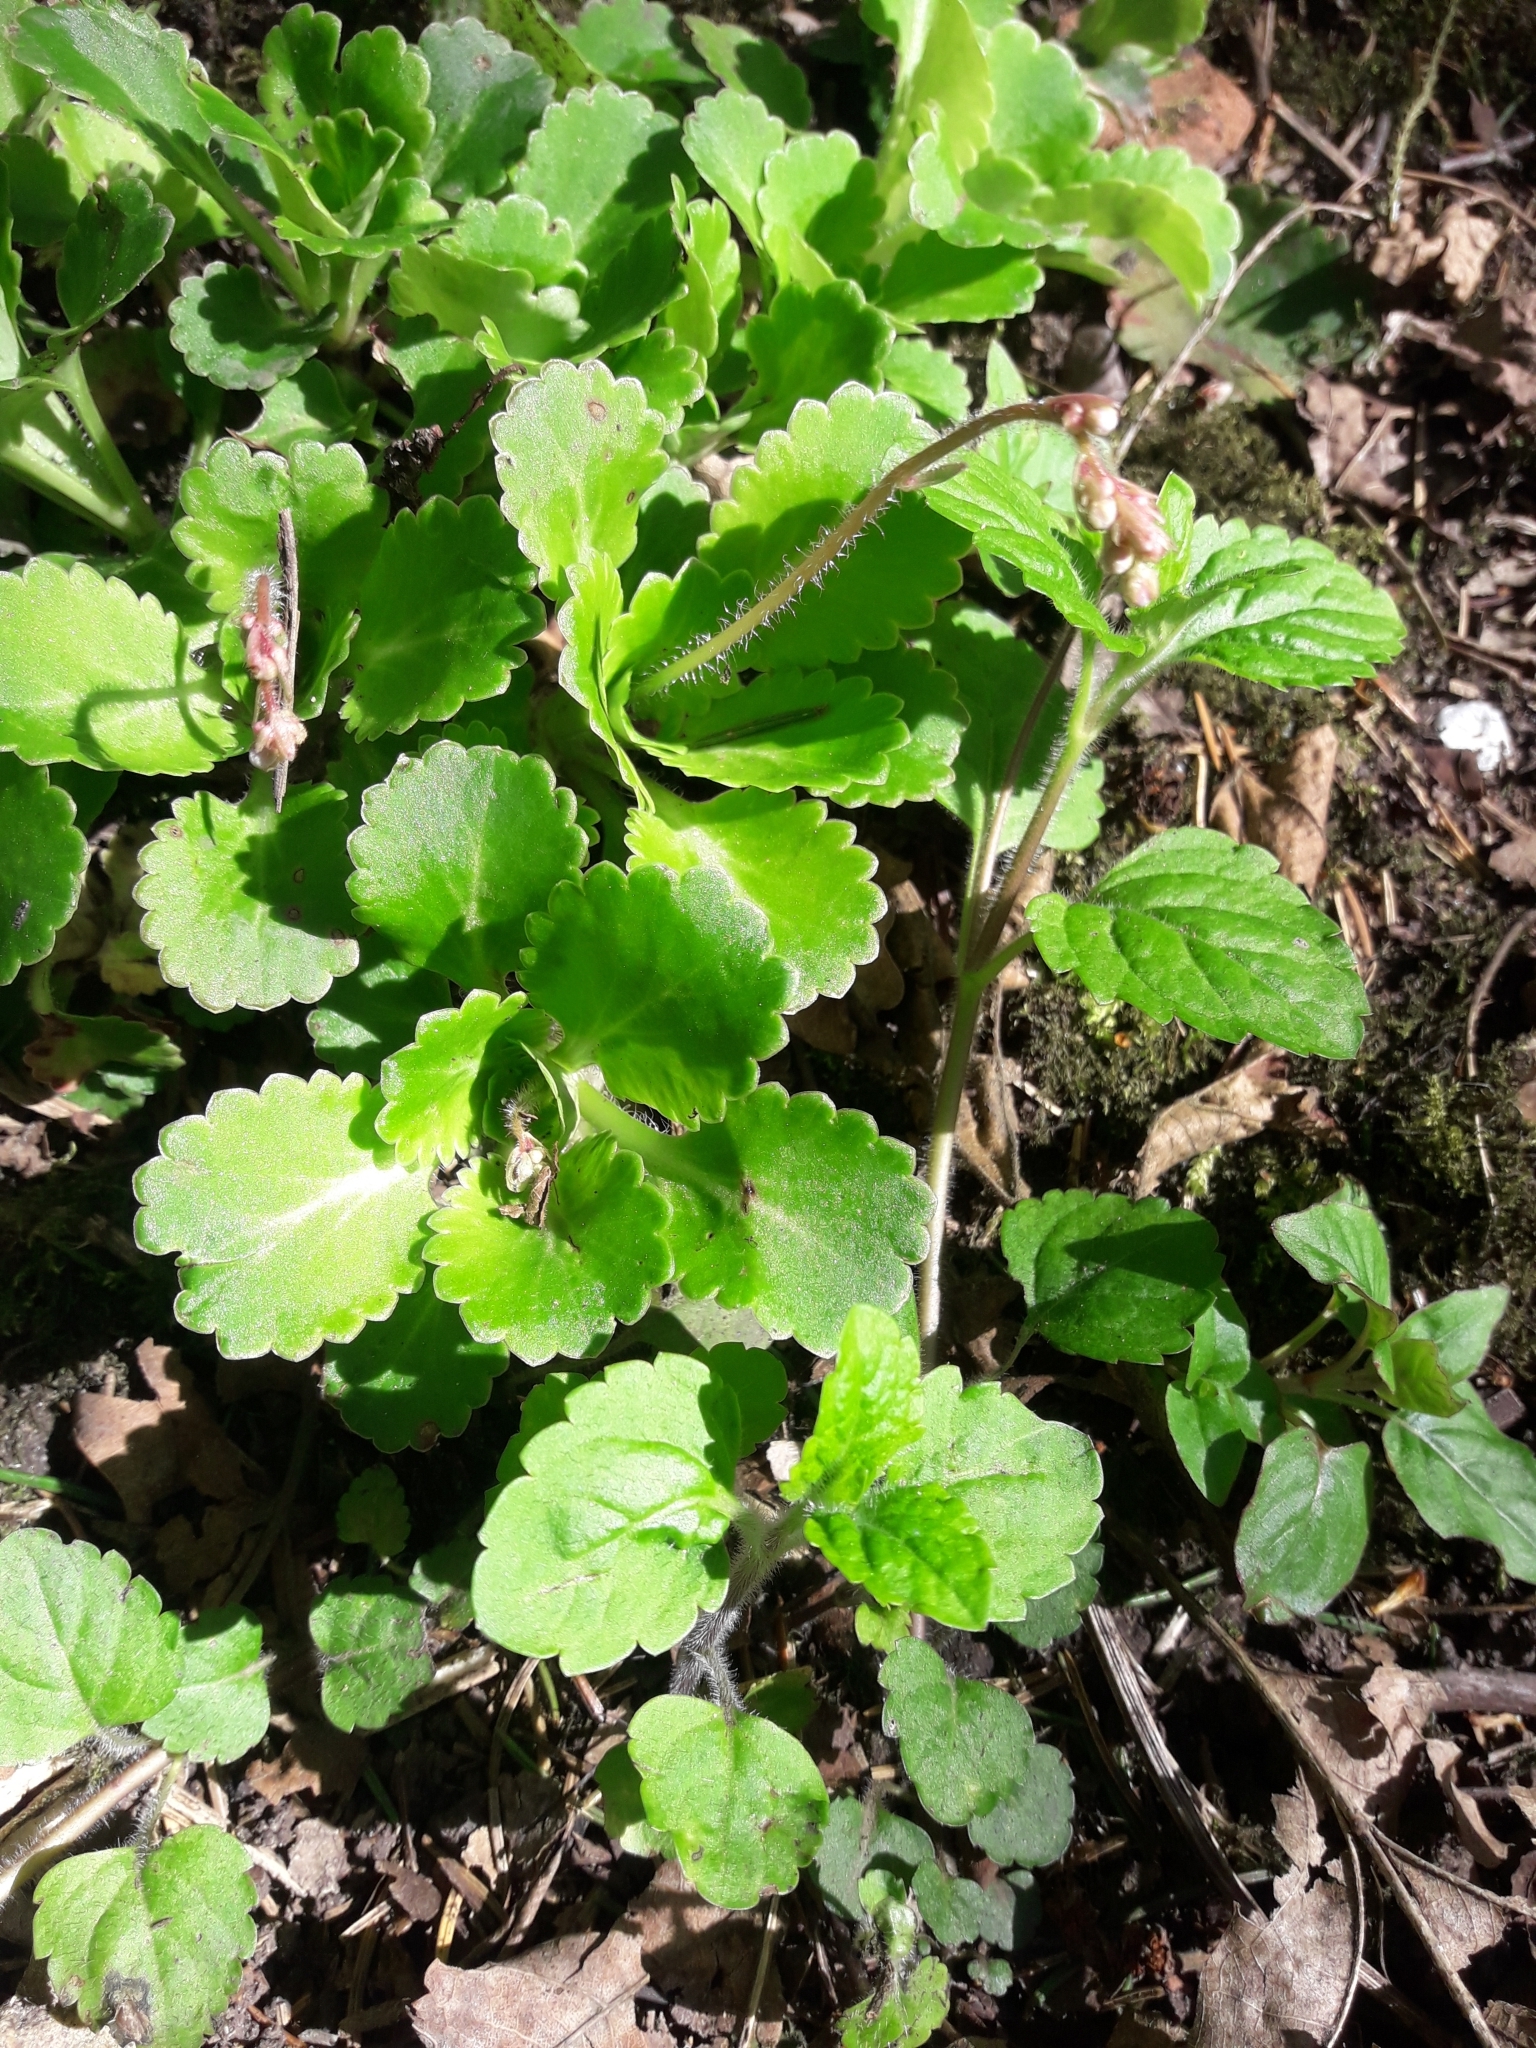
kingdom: Plantae
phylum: Tracheophyta
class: Magnoliopsida
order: Saxifragales
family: Saxifragaceae
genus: Saxifraga
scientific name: Saxifraga urbium
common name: Londonpride
